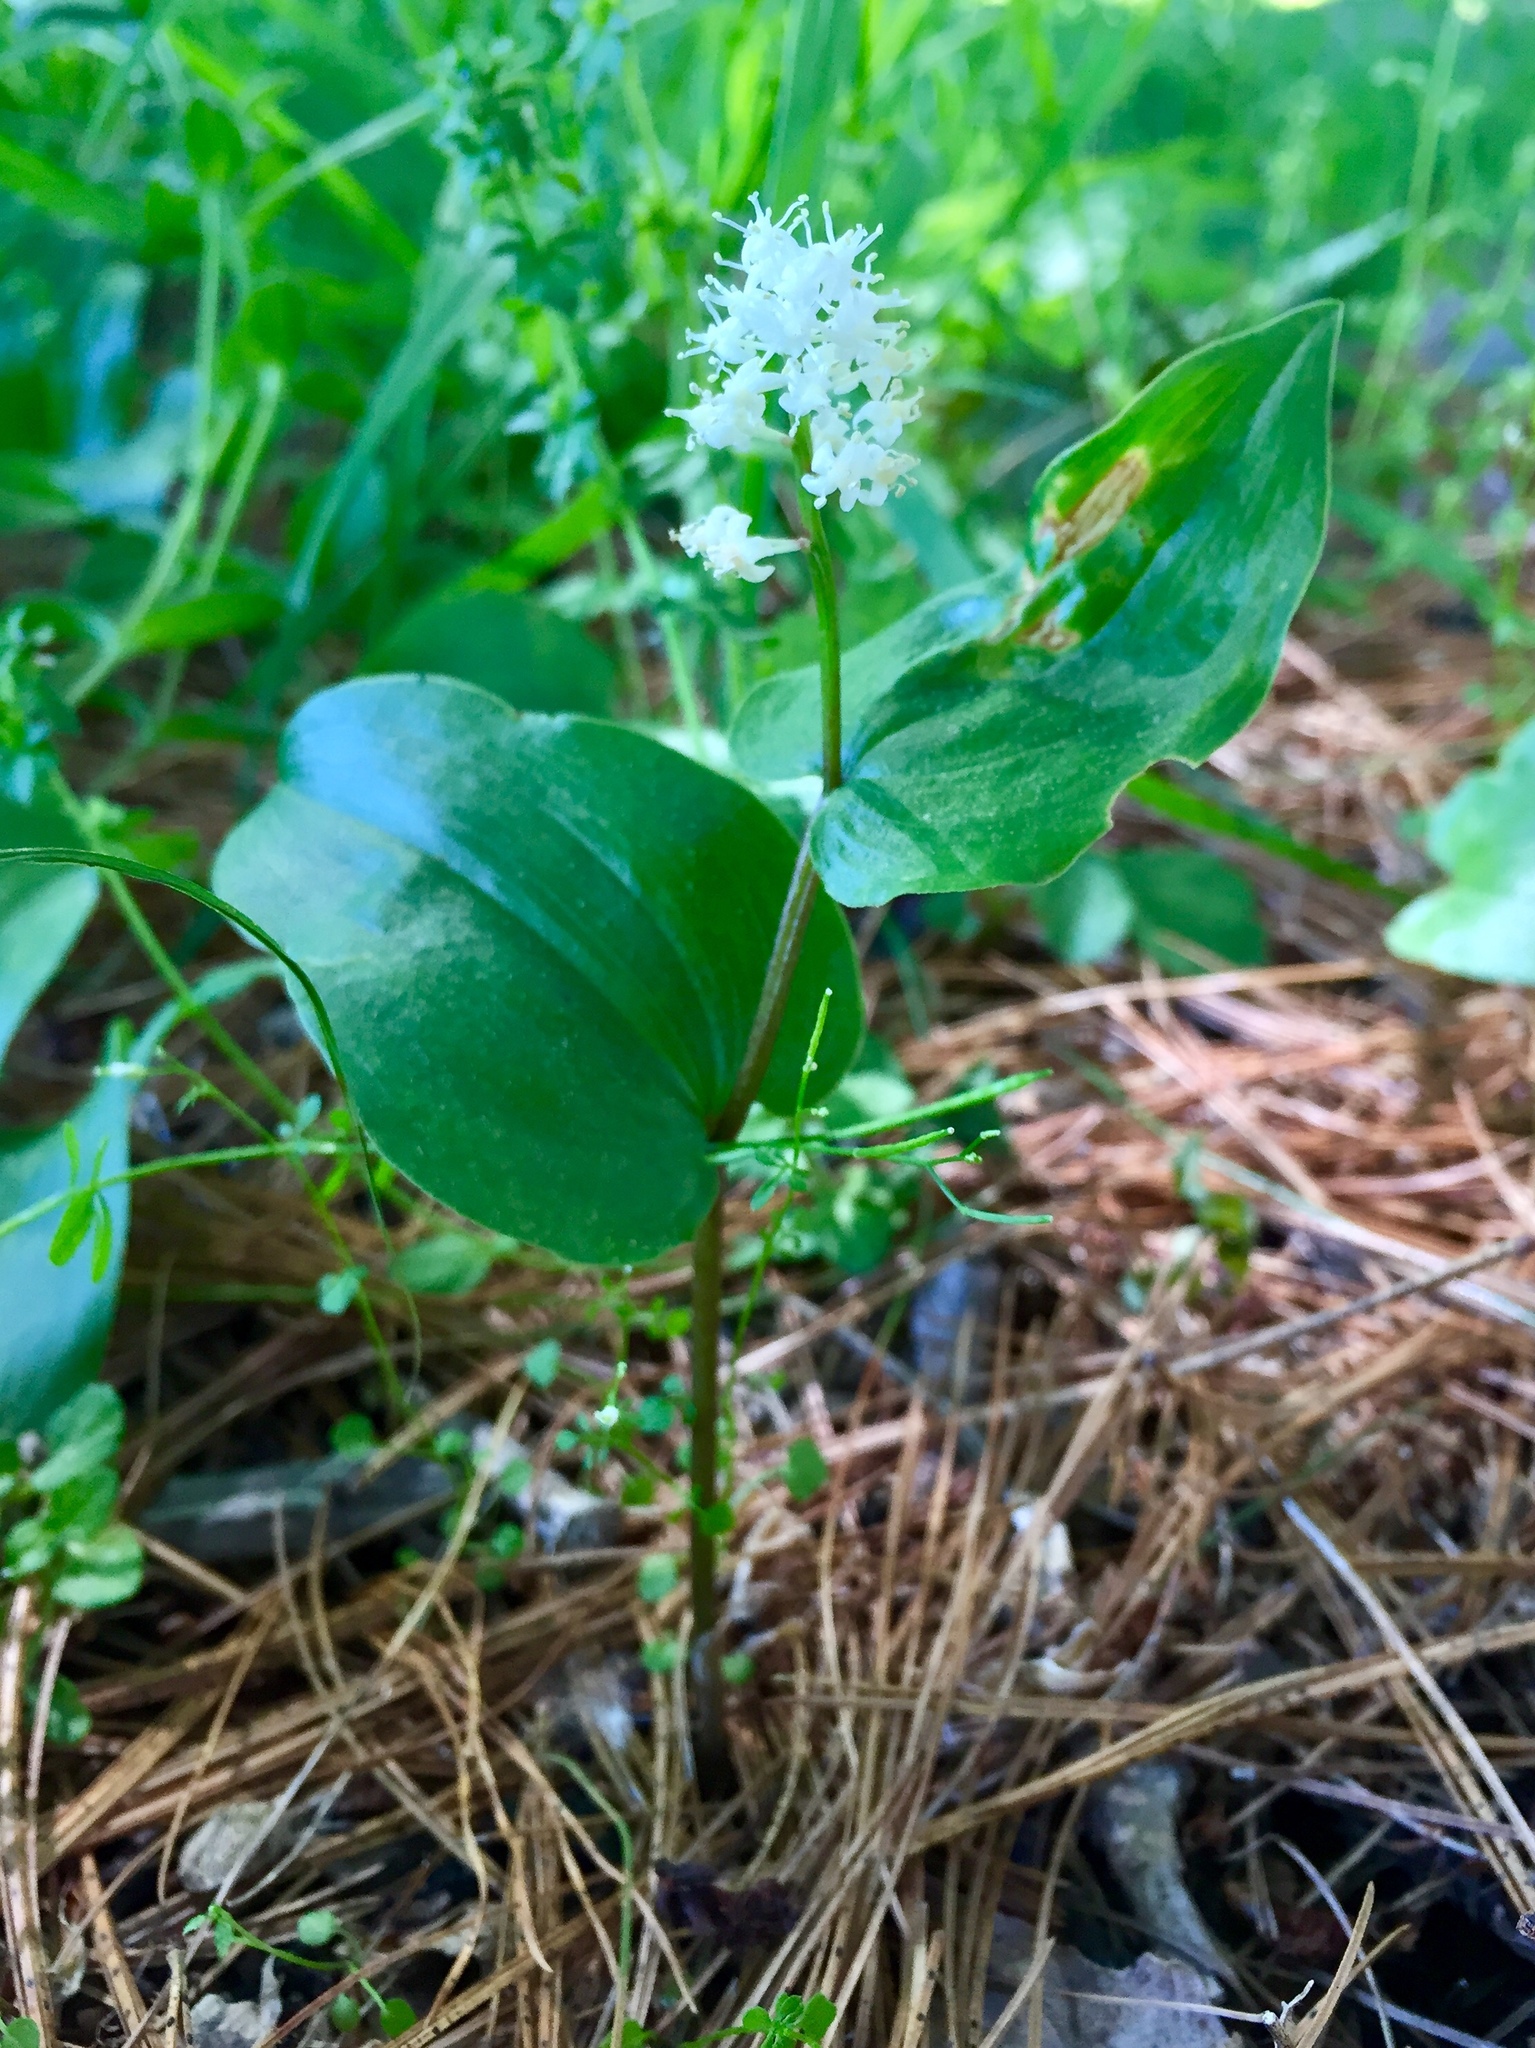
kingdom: Plantae
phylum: Tracheophyta
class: Liliopsida
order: Asparagales
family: Asparagaceae
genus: Maianthemum
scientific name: Maianthemum canadense
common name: False lily-of-the-valley
